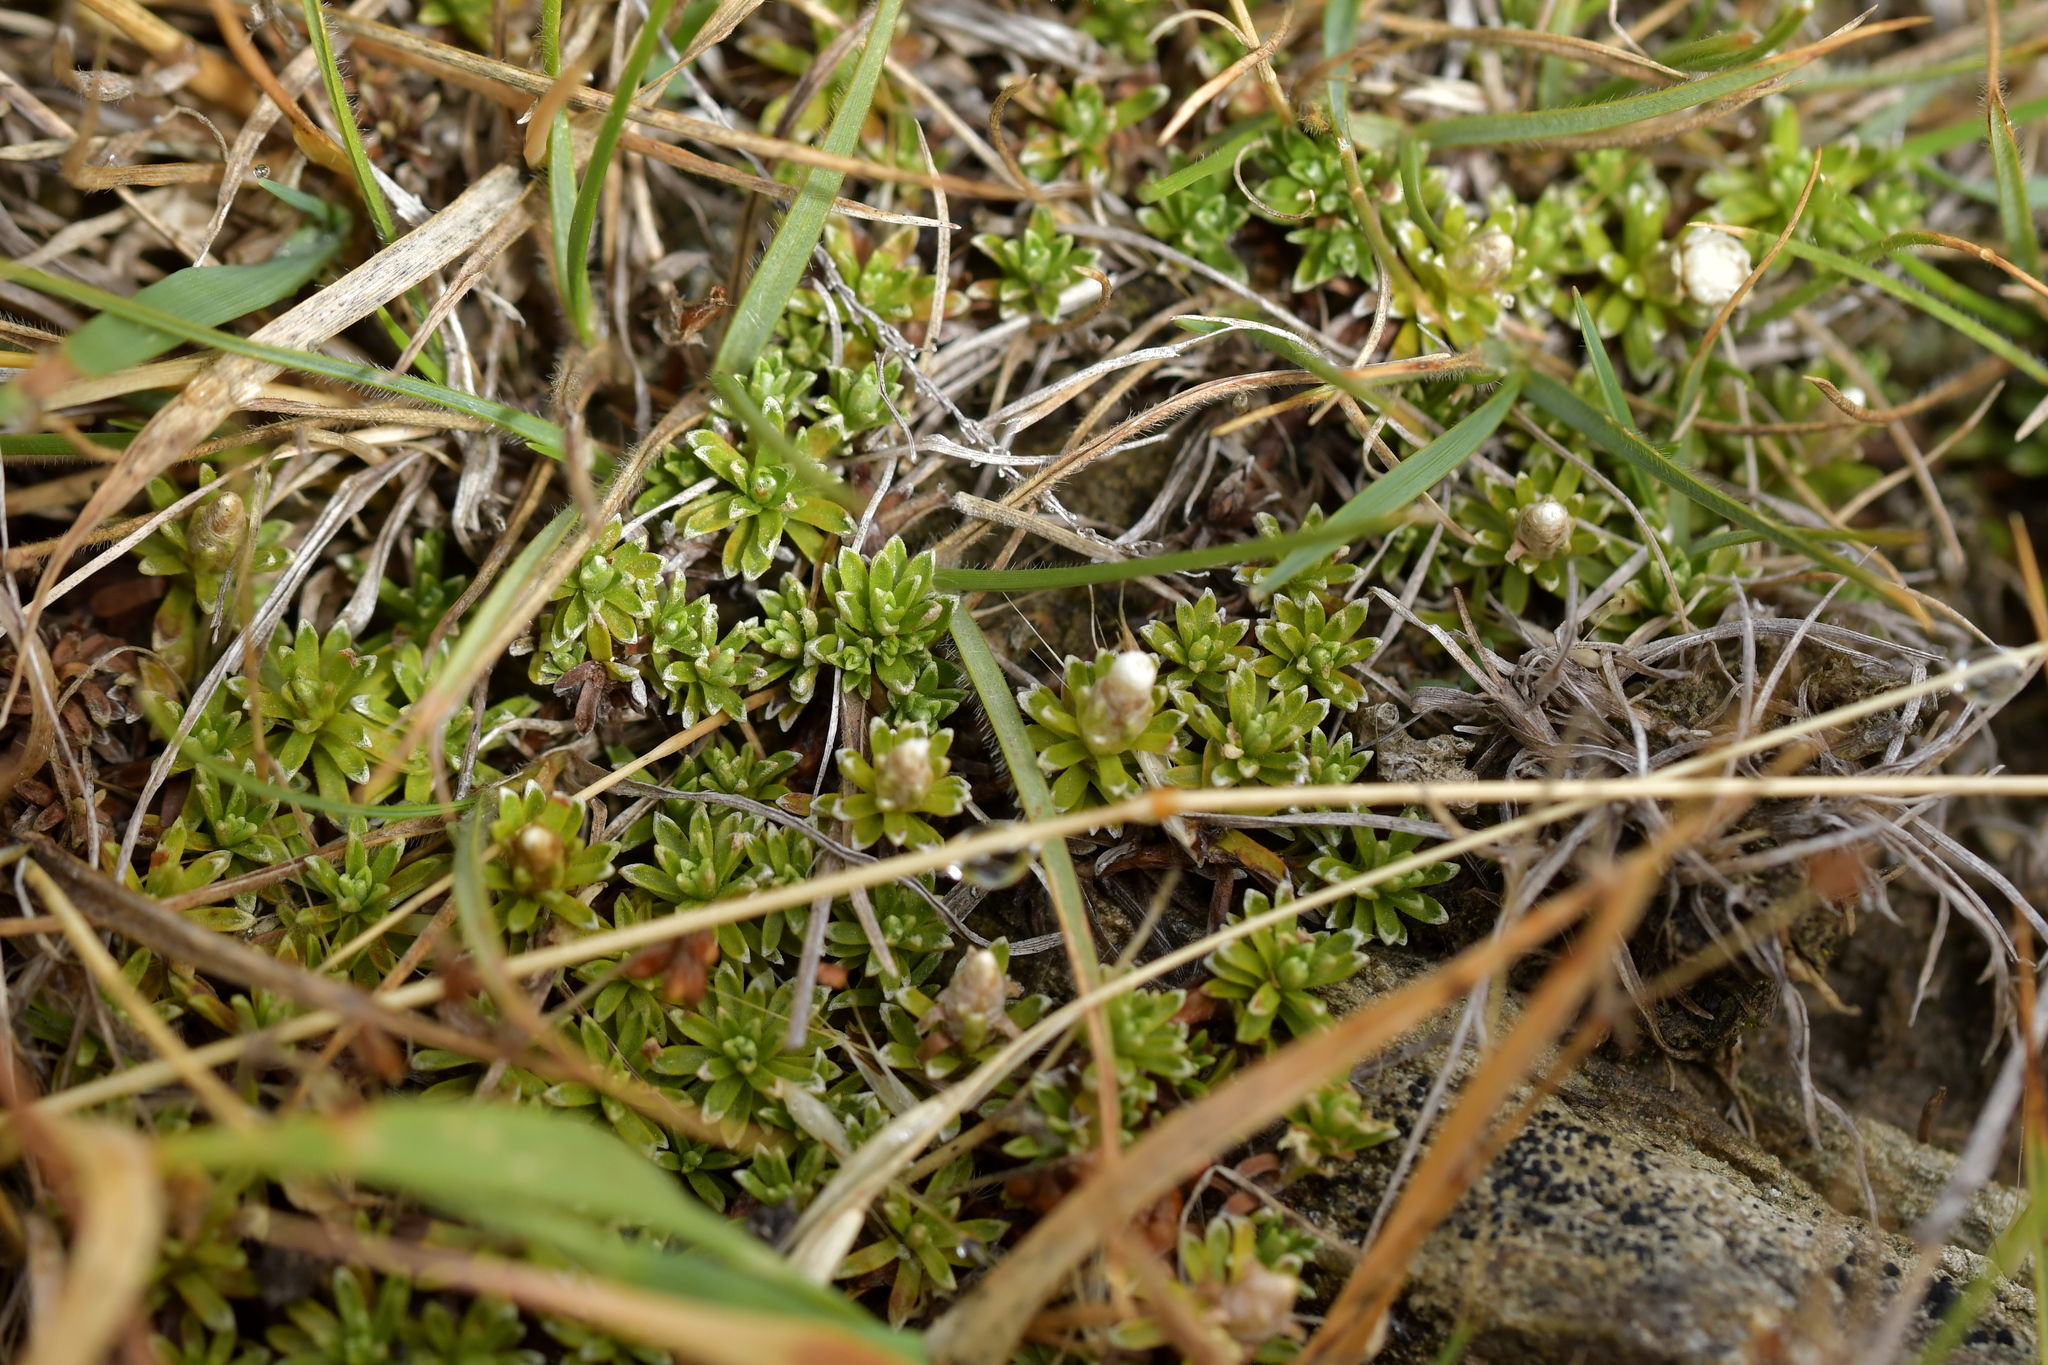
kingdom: Plantae
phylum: Tracheophyta
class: Magnoliopsida
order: Asterales
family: Asteraceae
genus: Raoulia
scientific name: Raoulia subsericea
